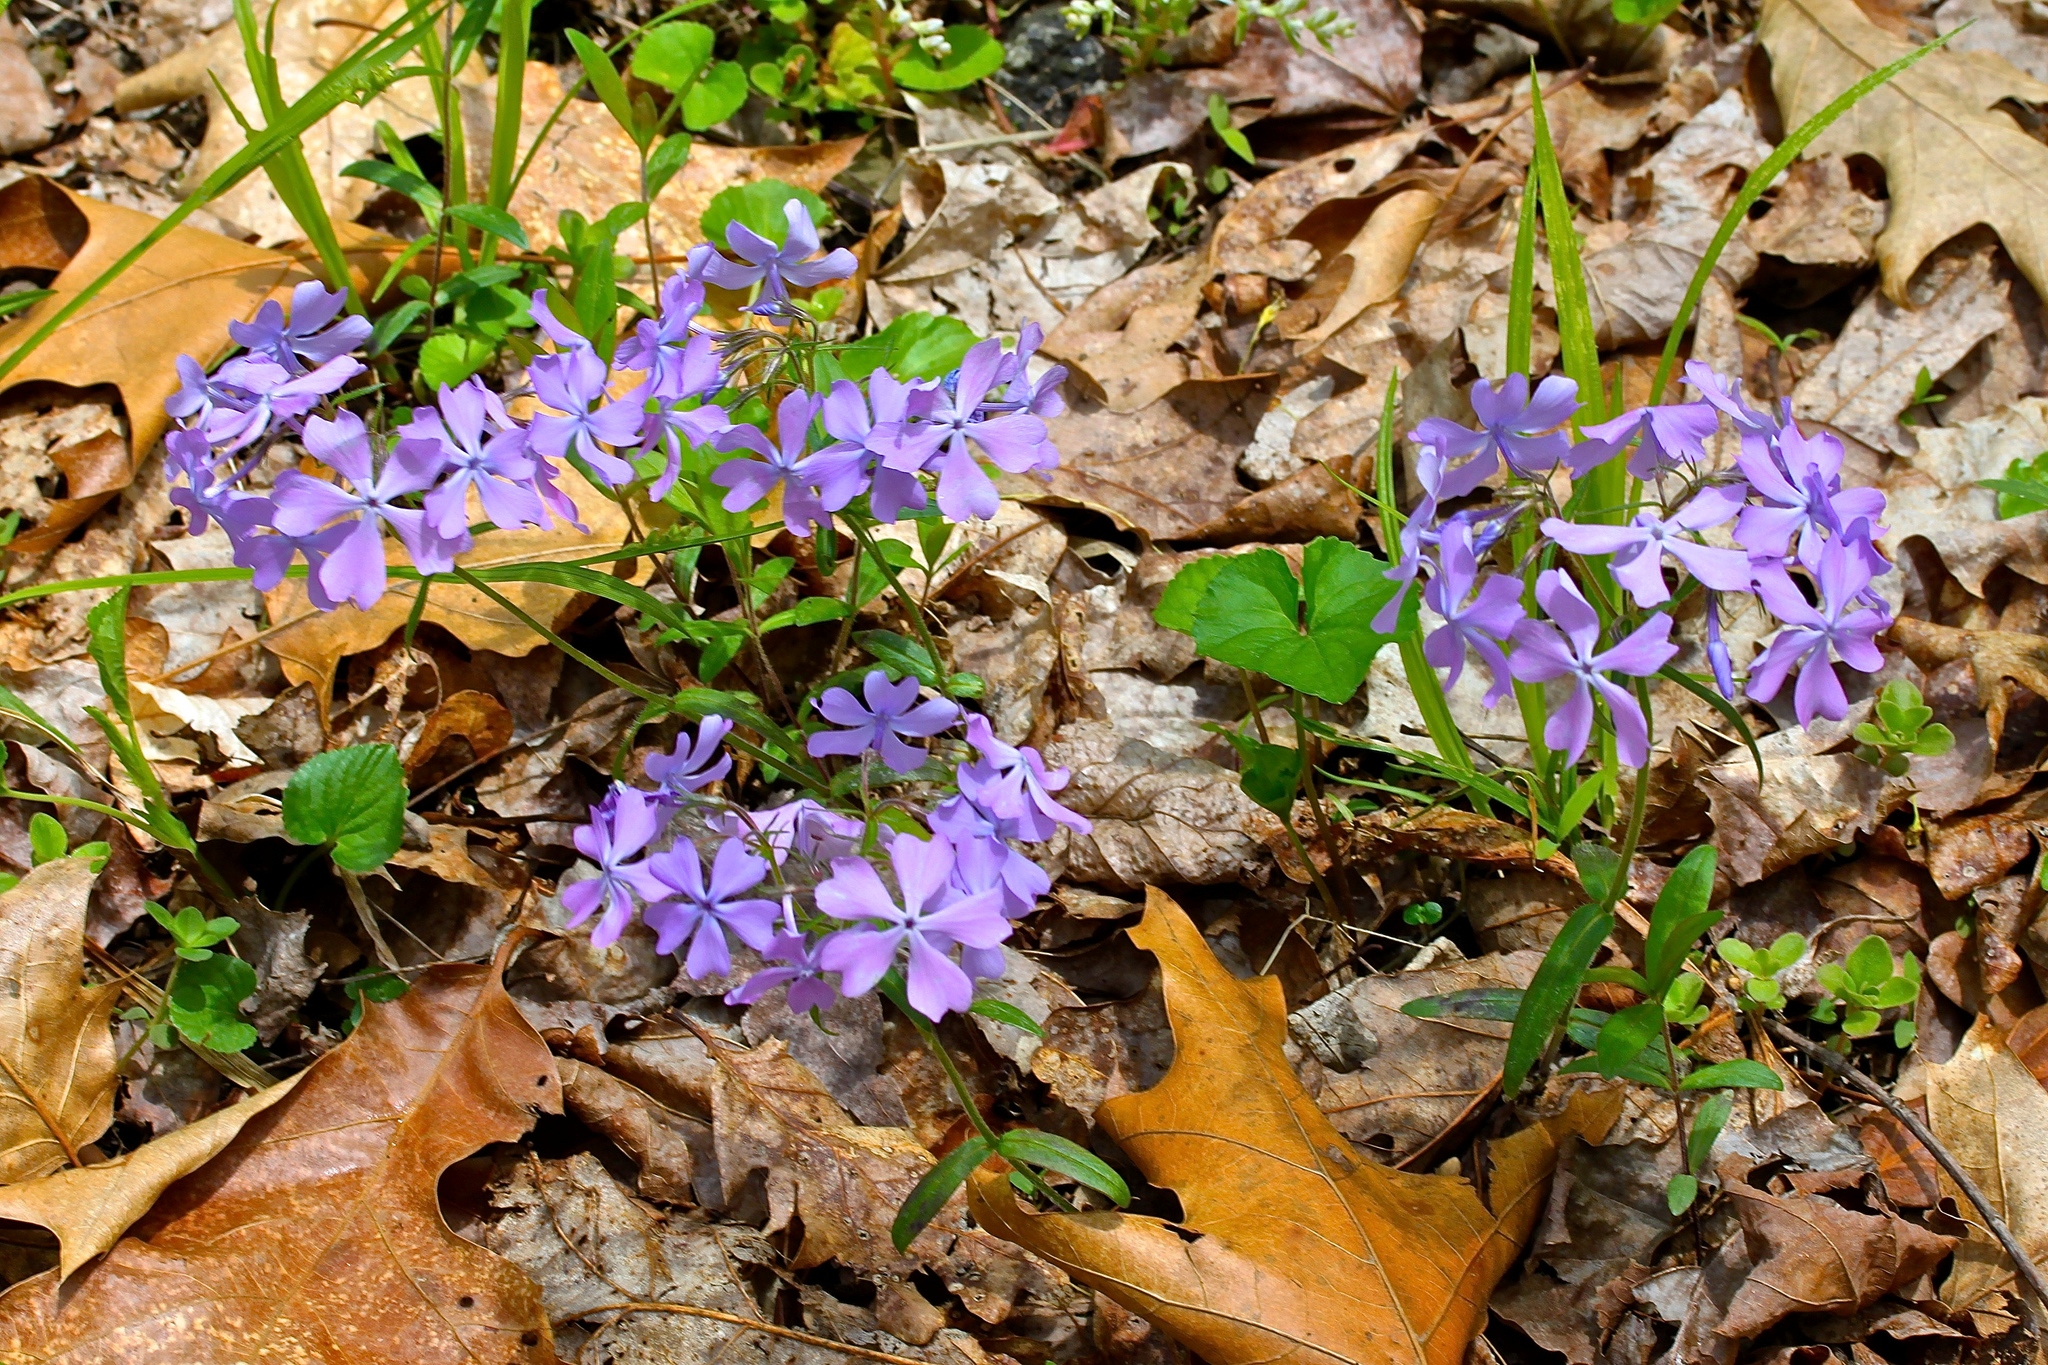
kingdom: Plantae
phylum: Tracheophyta
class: Magnoliopsida
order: Ericales
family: Polemoniaceae
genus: Phlox
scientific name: Phlox divaricata
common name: Blue phlox
